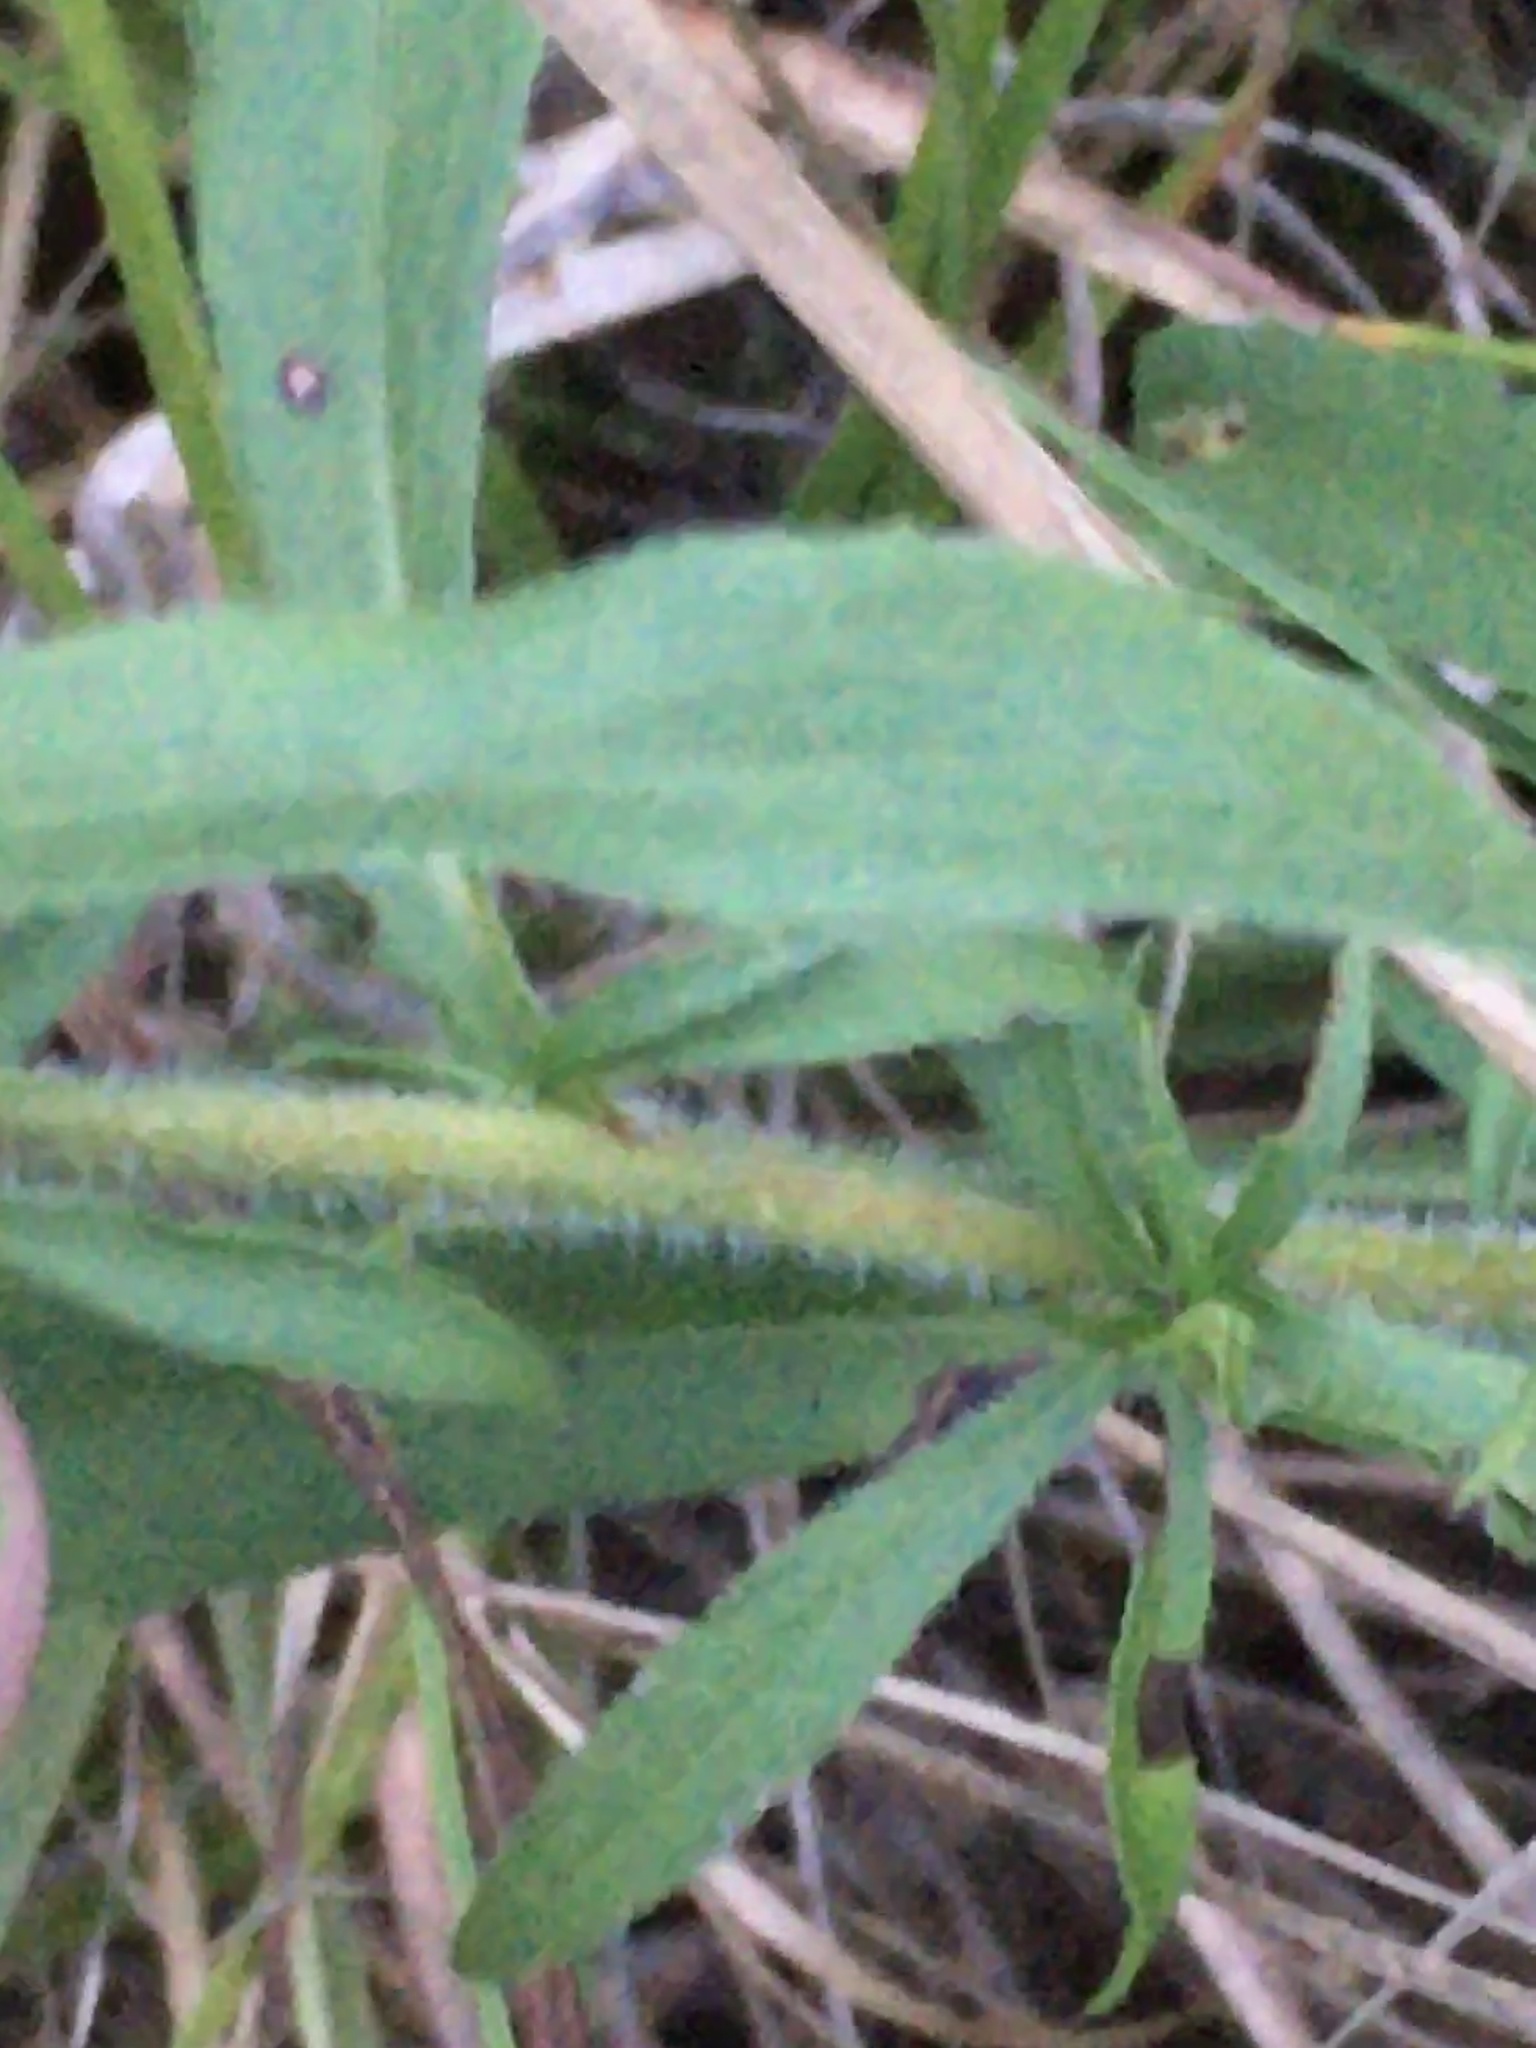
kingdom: Plantae
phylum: Tracheophyta
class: Magnoliopsida
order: Asterales
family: Asteraceae
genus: Symphyotrichum
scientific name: Symphyotrichum pilosum
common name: Awl aster
